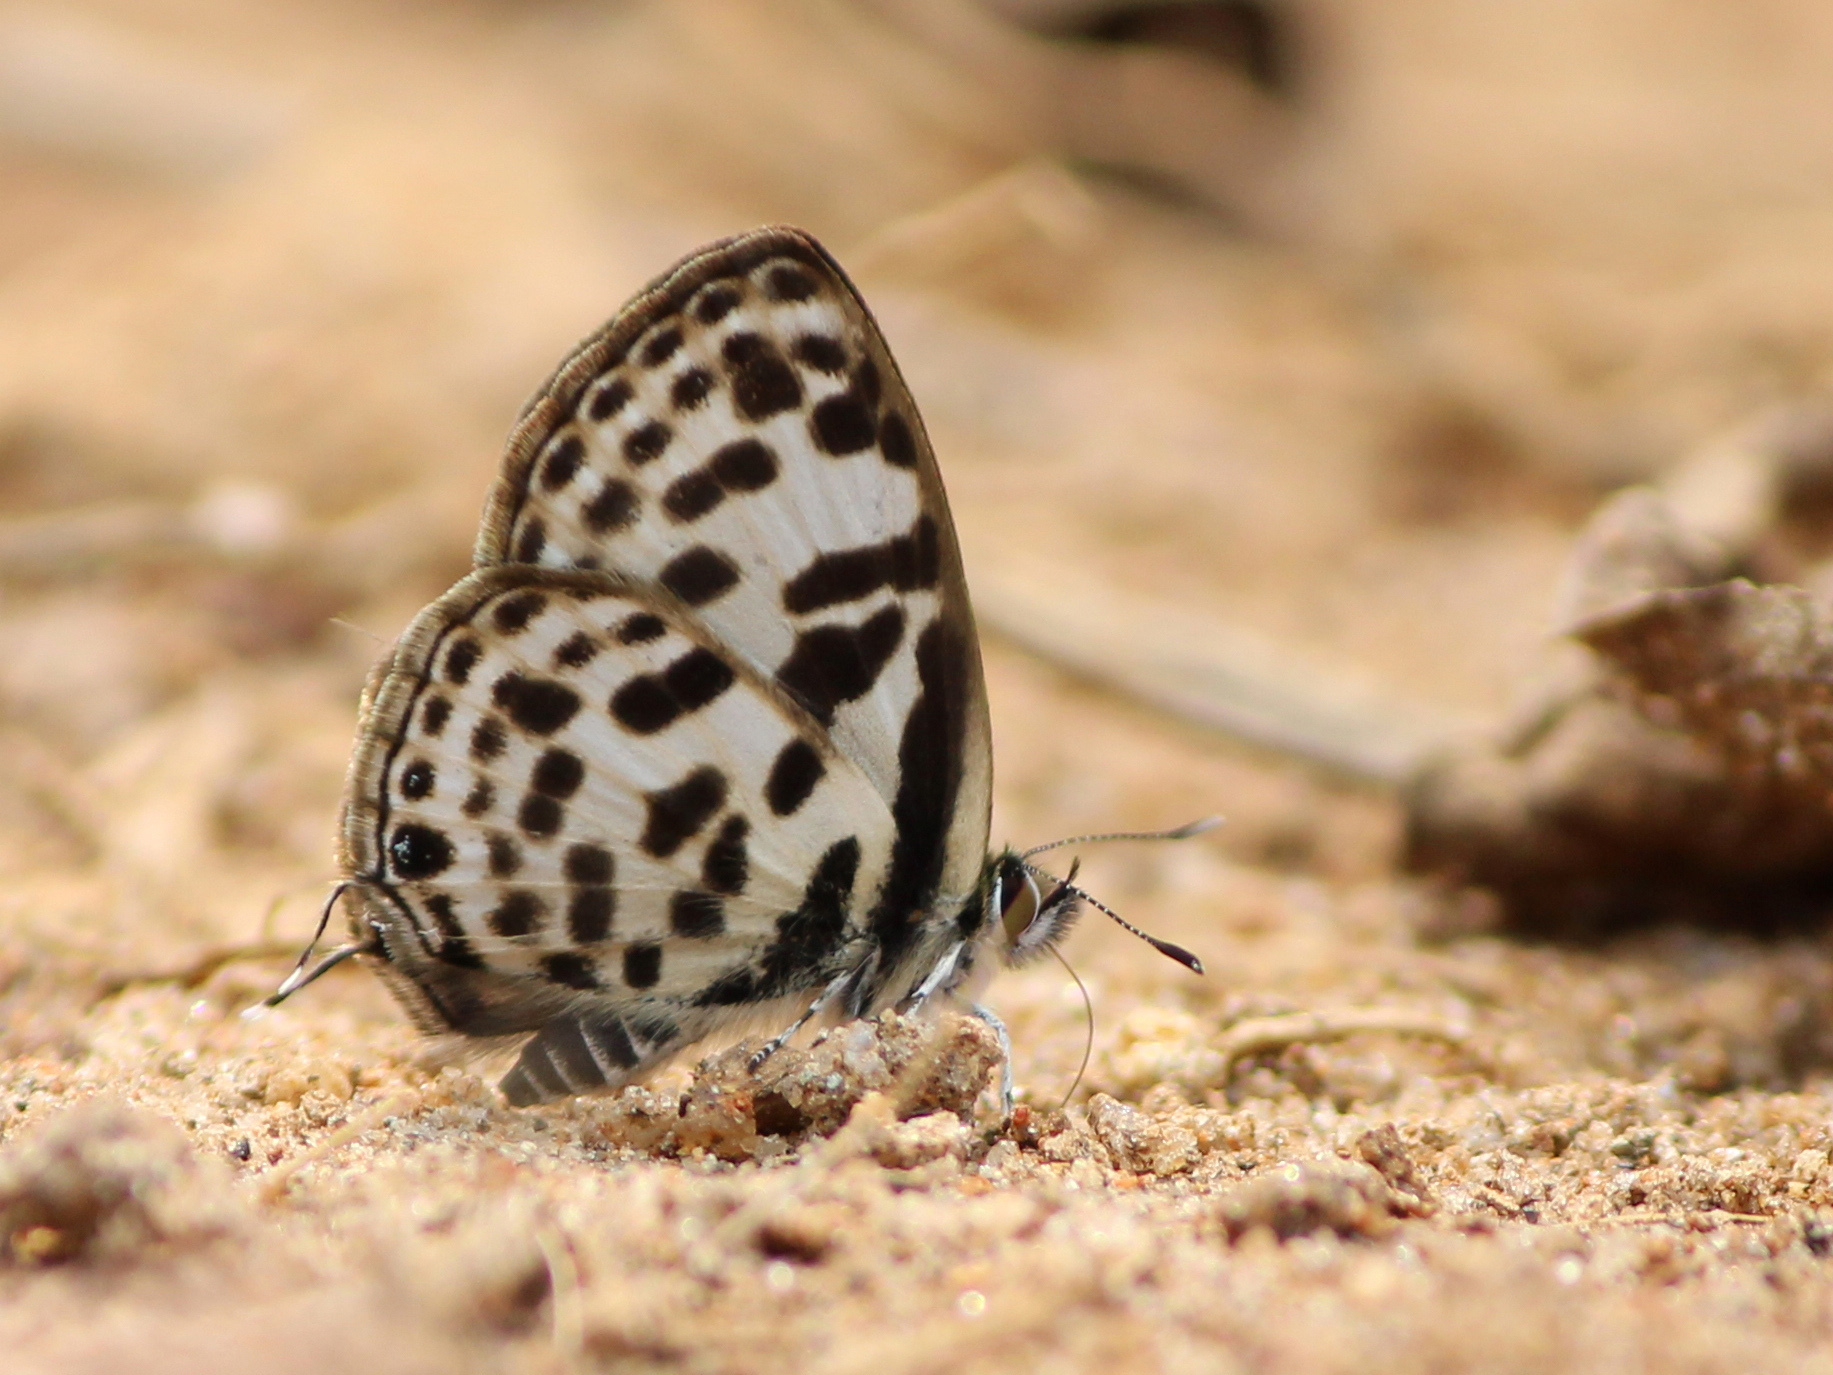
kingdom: Animalia
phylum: Arthropoda
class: Insecta
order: Lepidoptera
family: Lycaenidae
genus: Tarucus
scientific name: Tarucus
